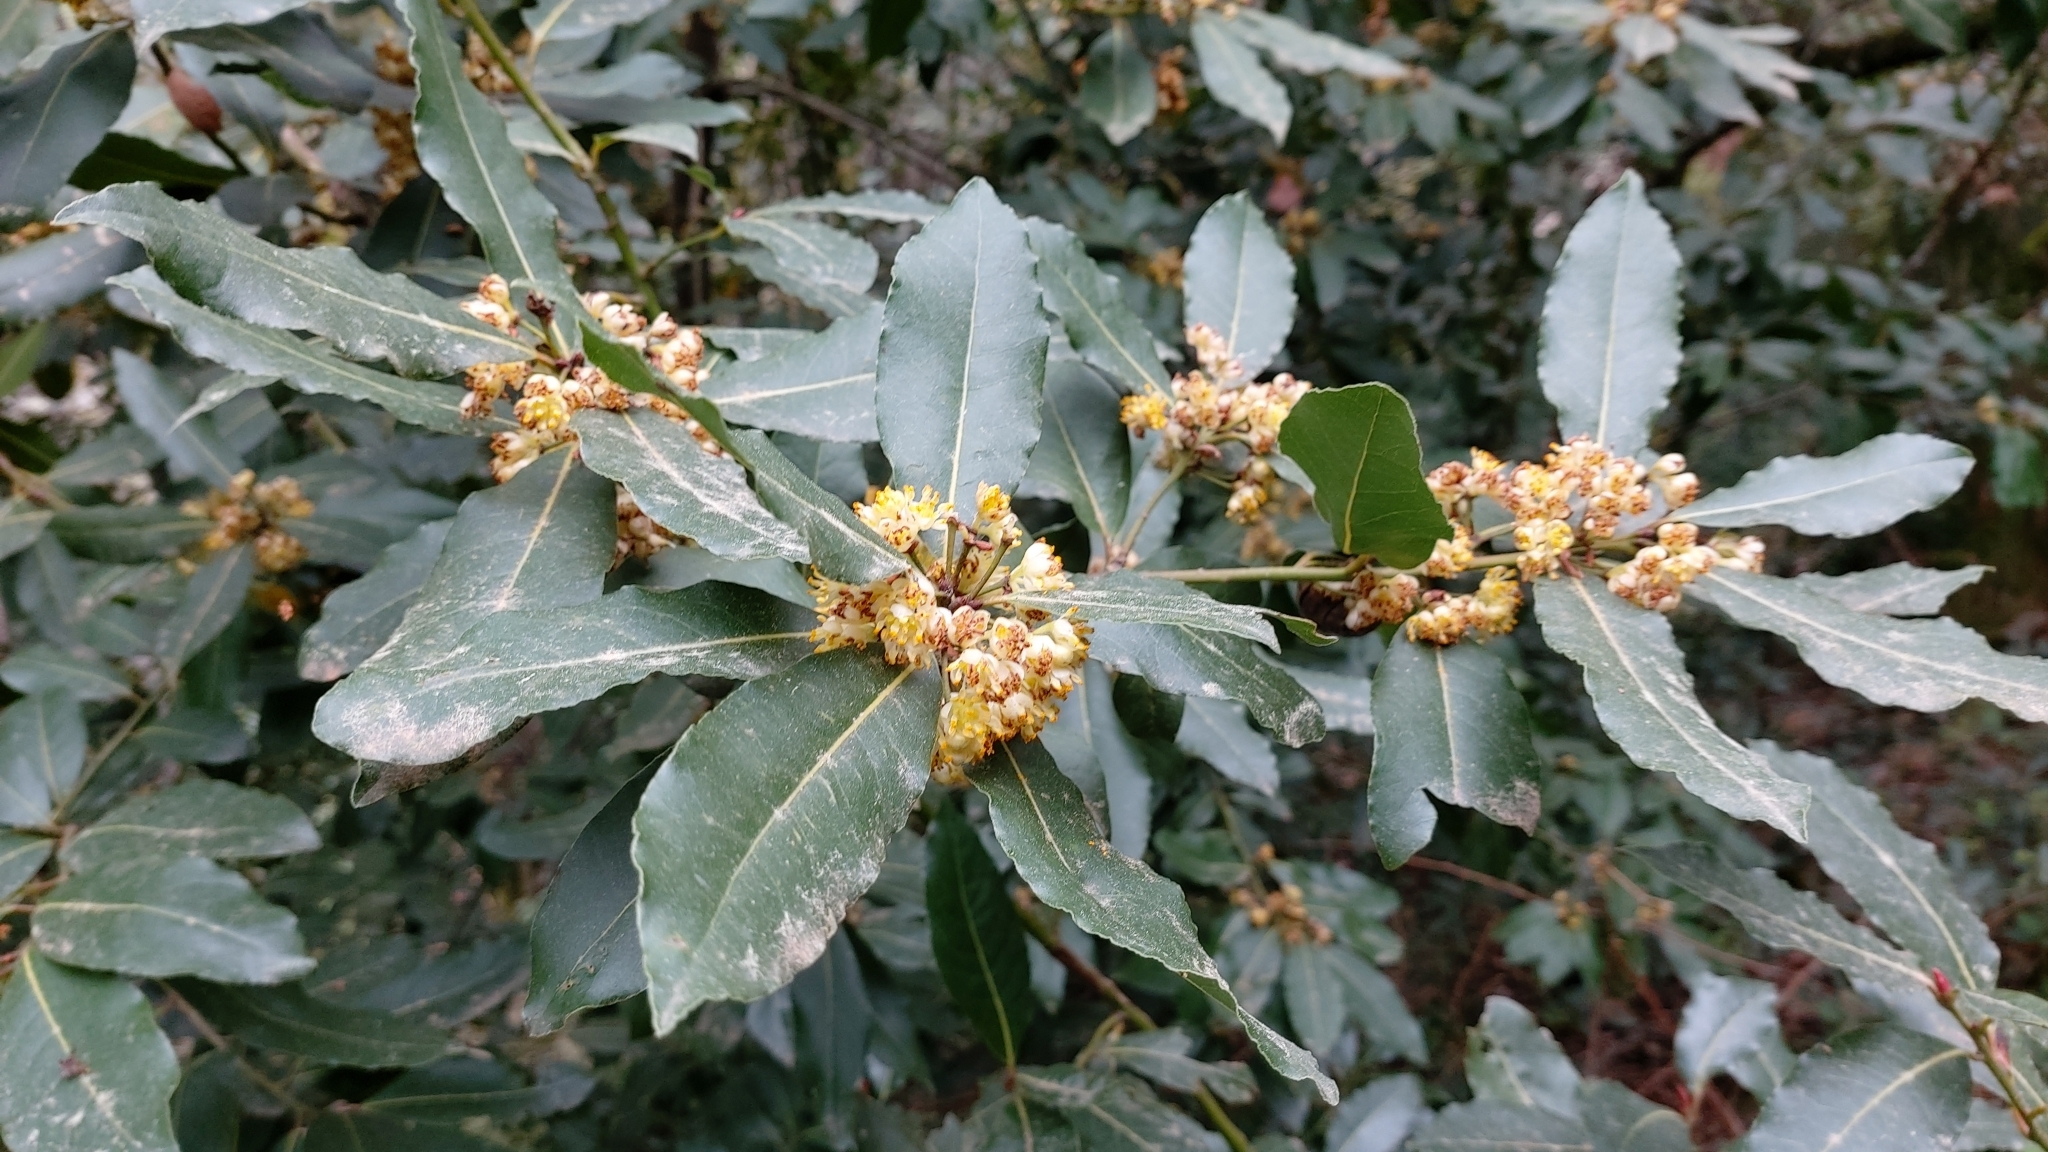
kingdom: Plantae
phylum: Tracheophyta
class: Magnoliopsida
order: Laurales
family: Lauraceae
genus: Laurus
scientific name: Laurus nobilis
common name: Bay
